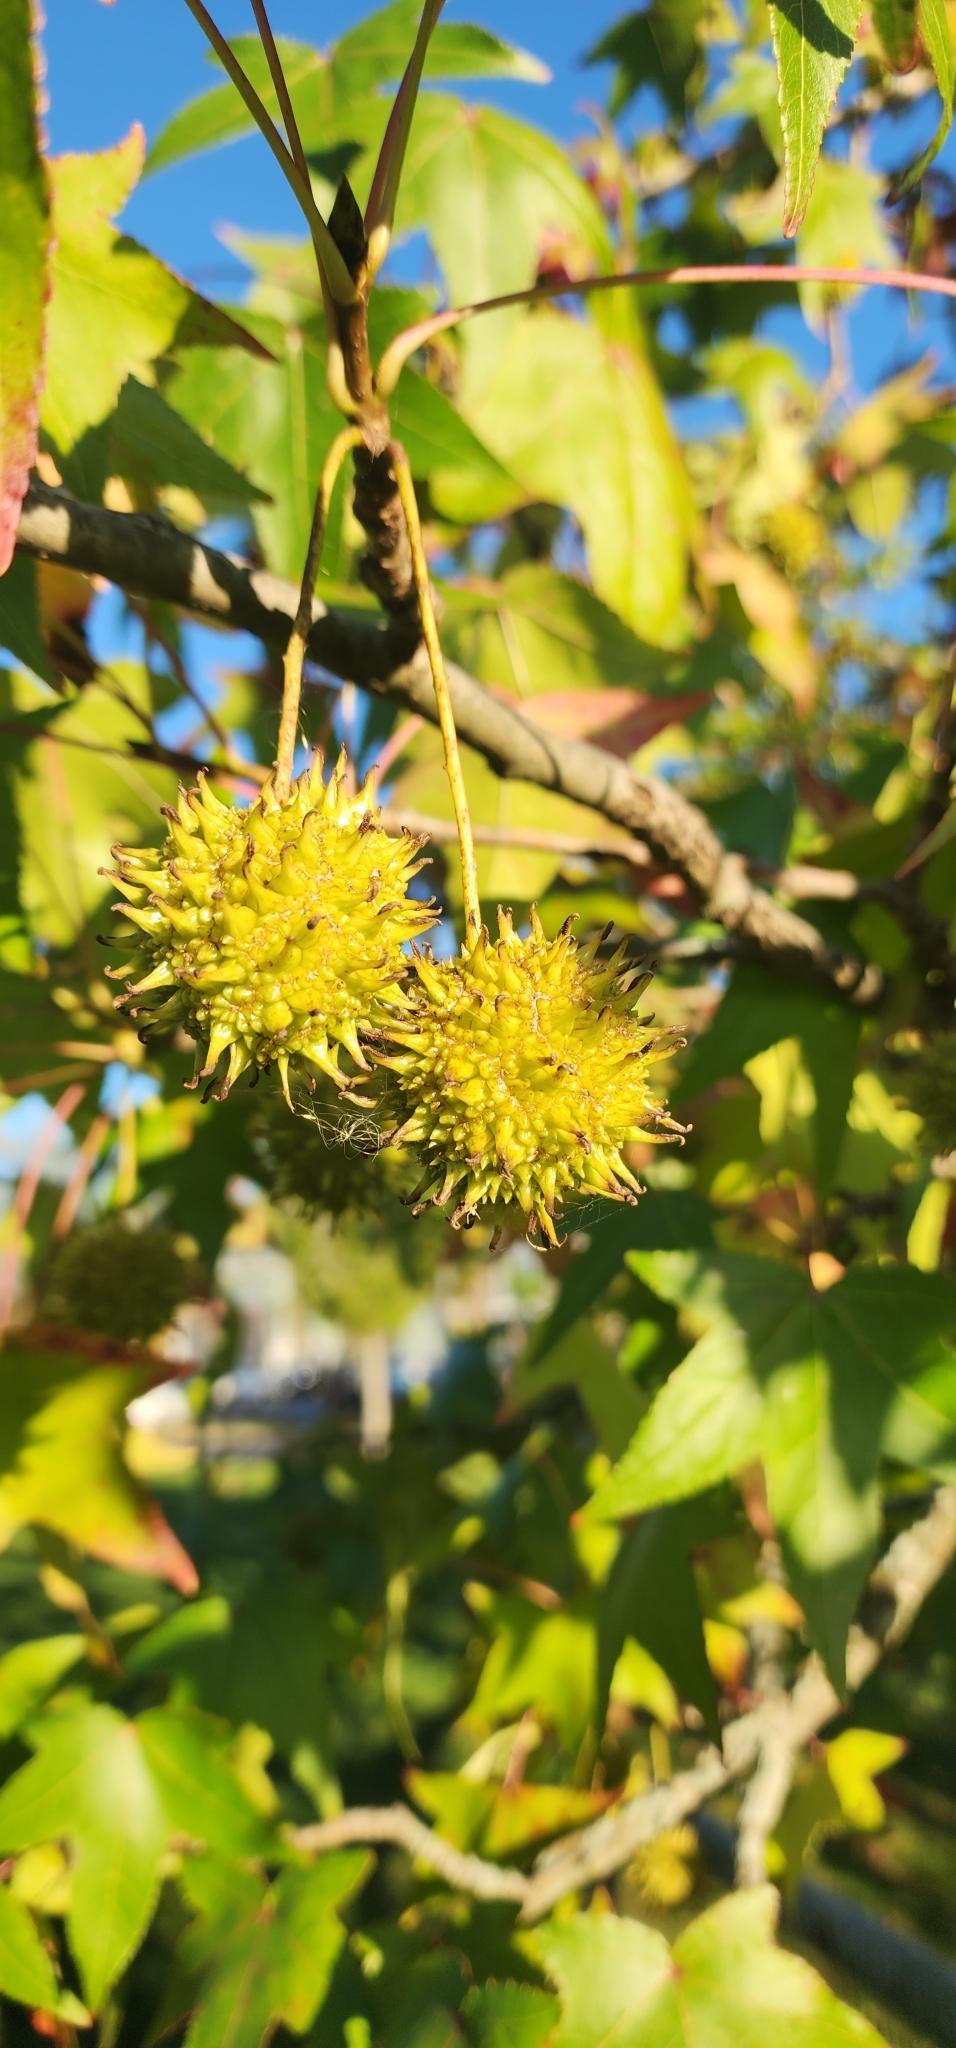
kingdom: Plantae
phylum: Tracheophyta
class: Magnoliopsida
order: Saxifragales
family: Altingiaceae
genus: Liquidambar
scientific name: Liquidambar styraciflua
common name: Sweet gum
